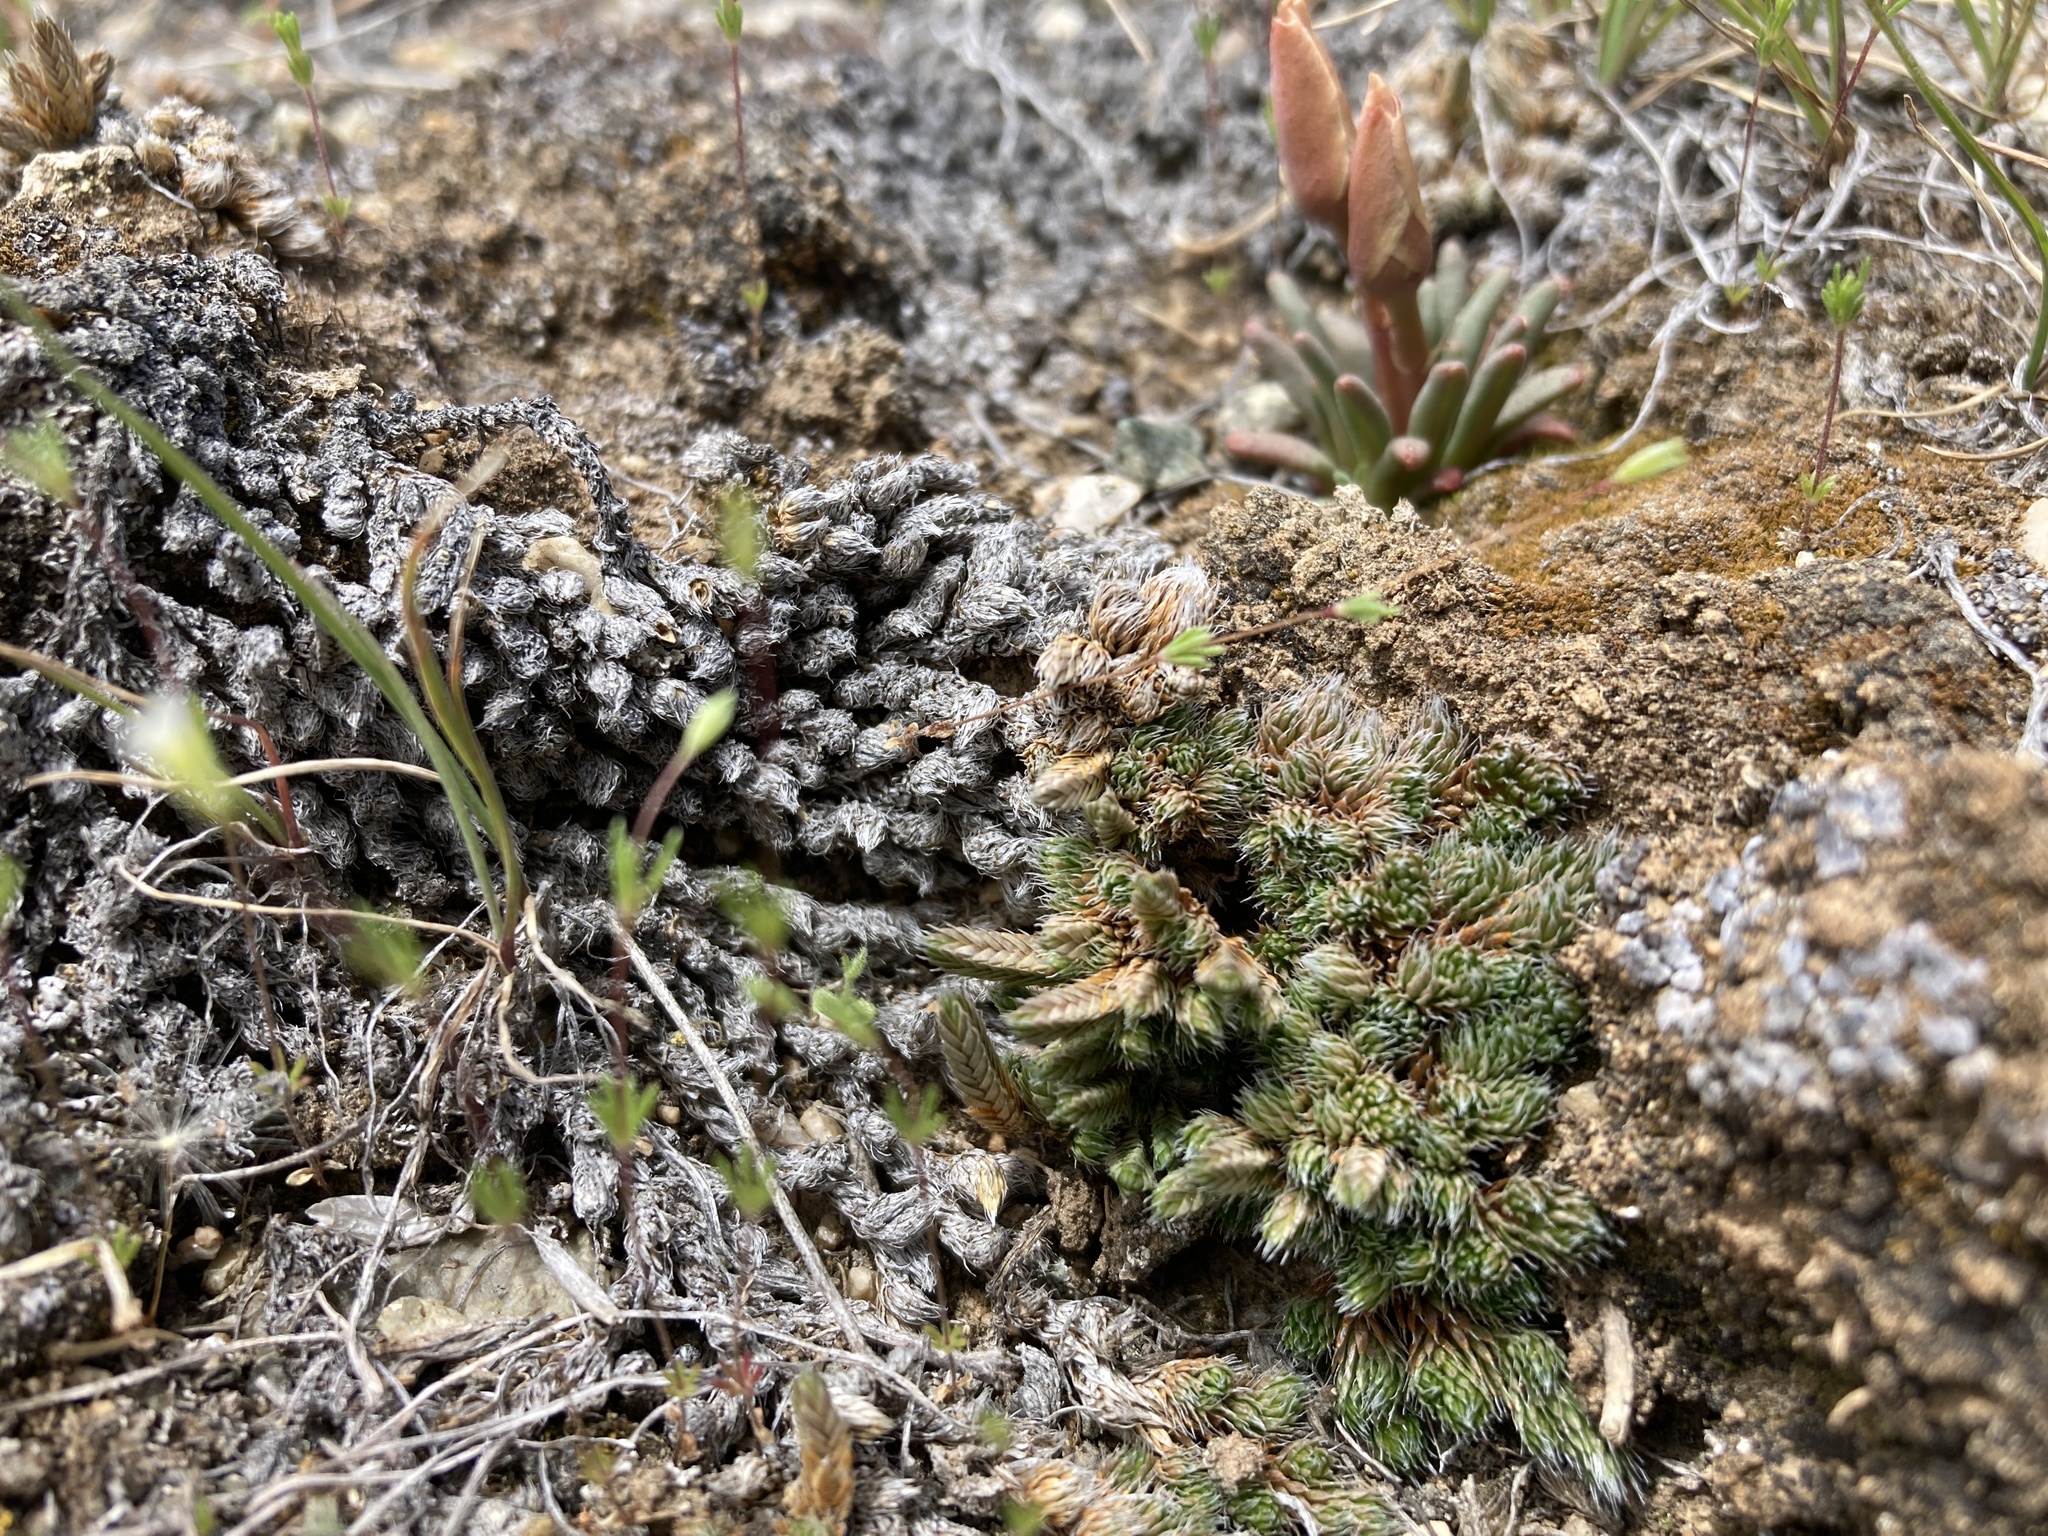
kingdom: Plantae
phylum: Tracheophyta
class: Lycopodiopsida
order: Selaginellales
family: Selaginellaceae
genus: Selaginella
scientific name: Selaginella densa
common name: Mountain spike-moss
